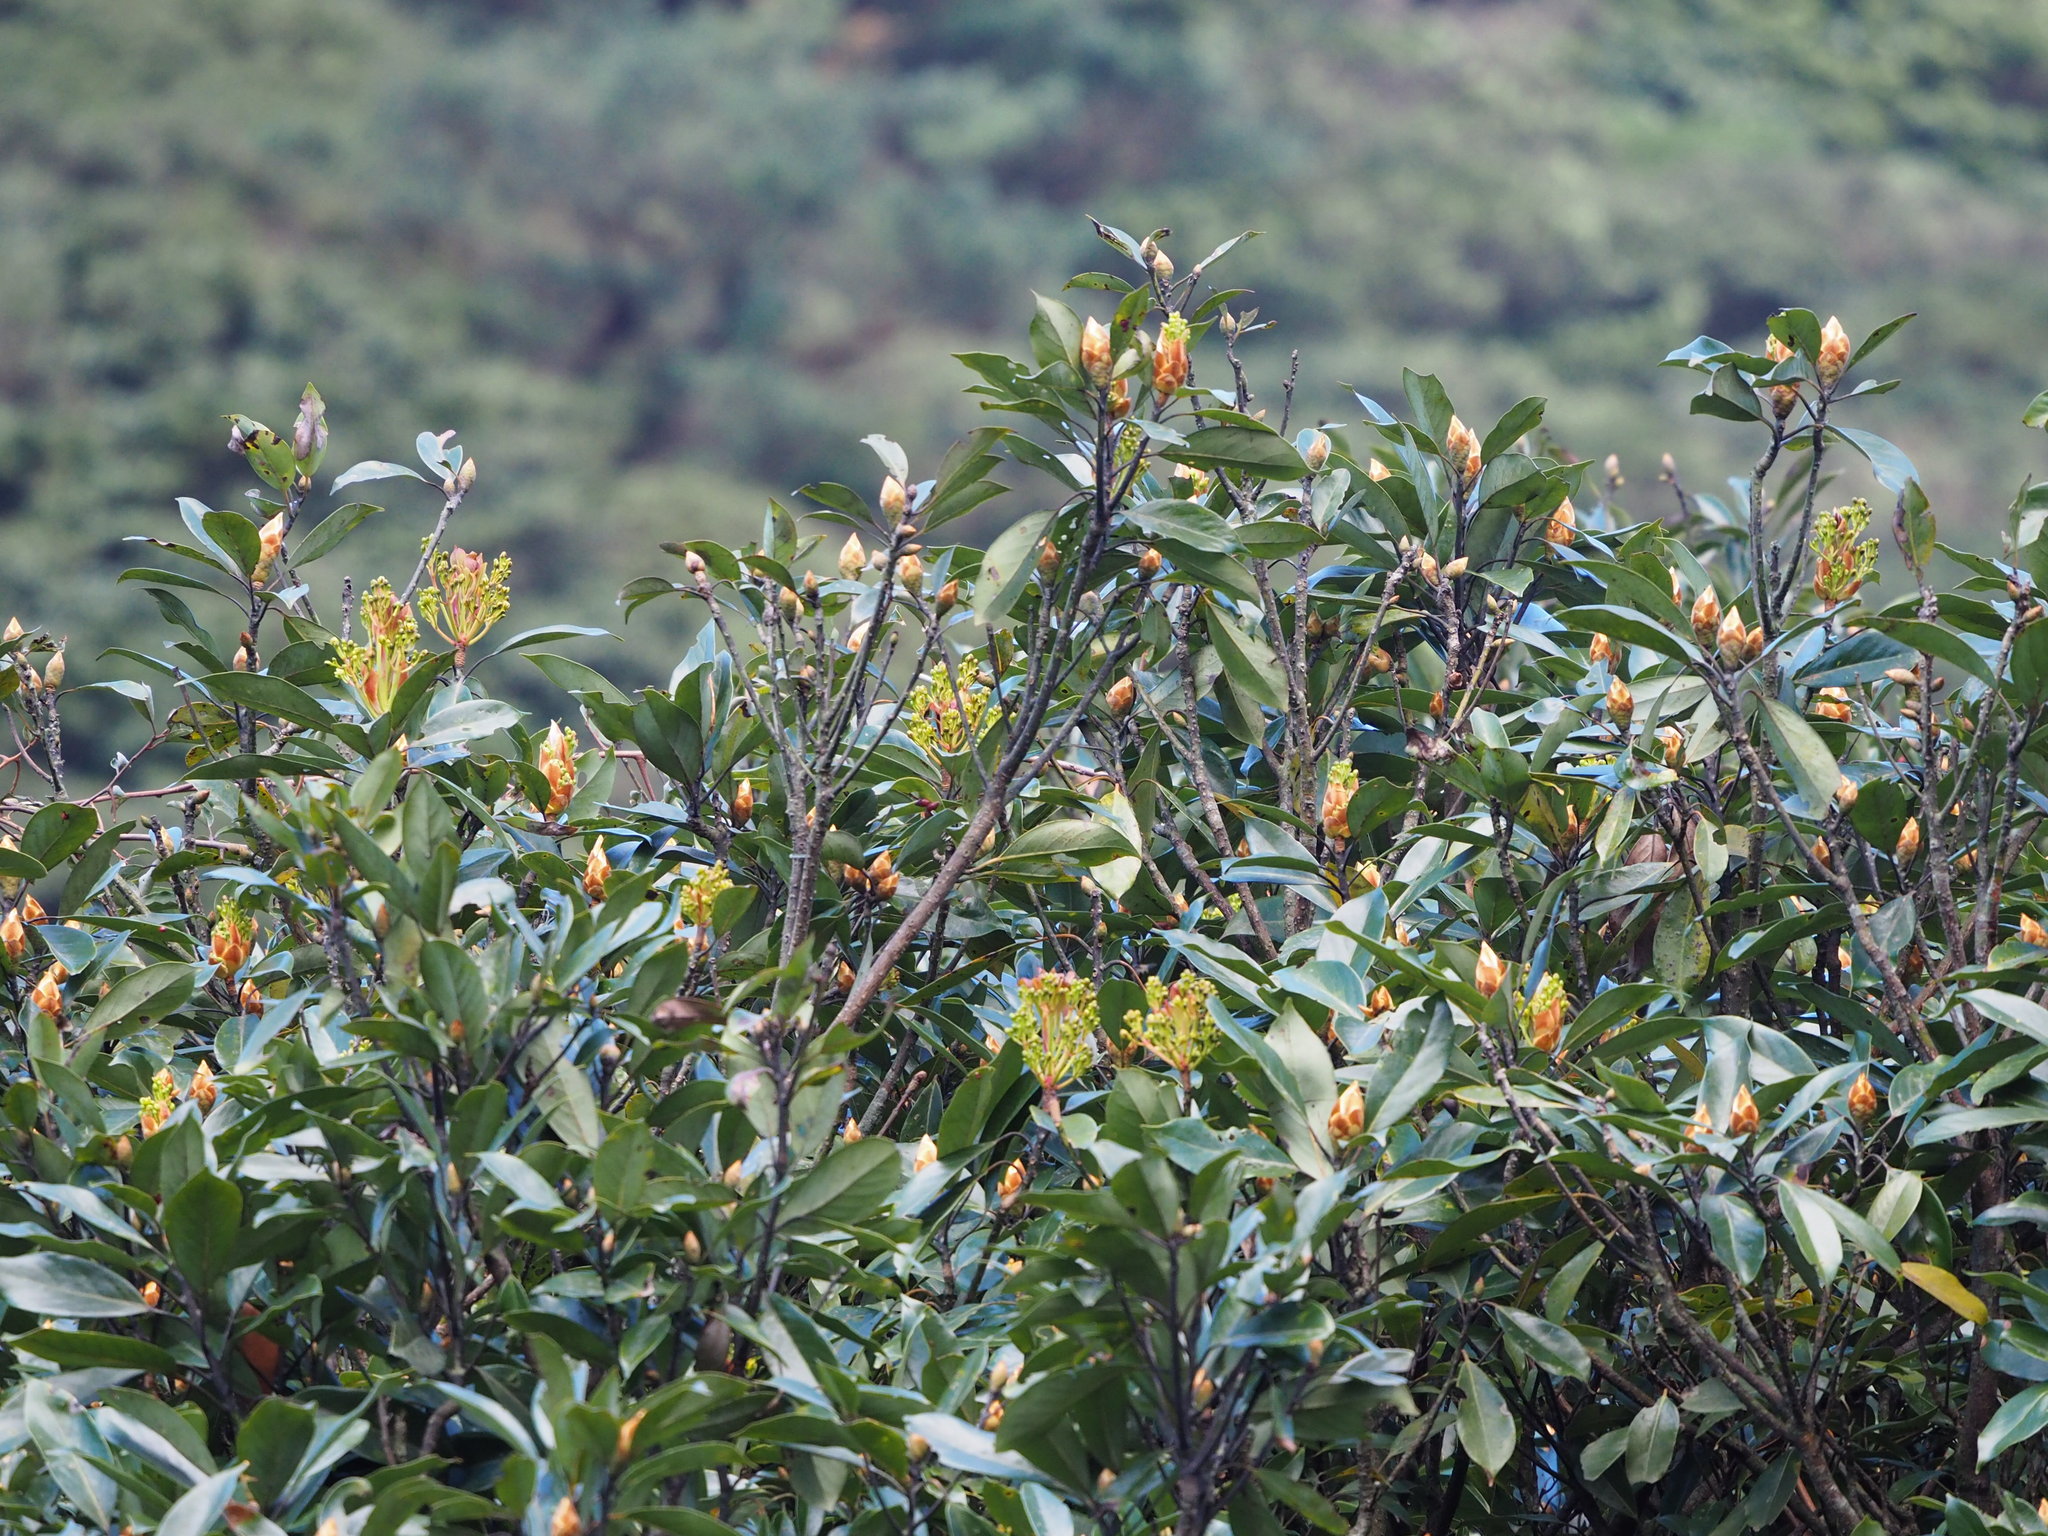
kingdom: Plantae
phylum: Tracheophyta
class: Magnoliopsida
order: Laurales
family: Lauraceae
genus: Machilus
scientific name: Machilus thunbergii
